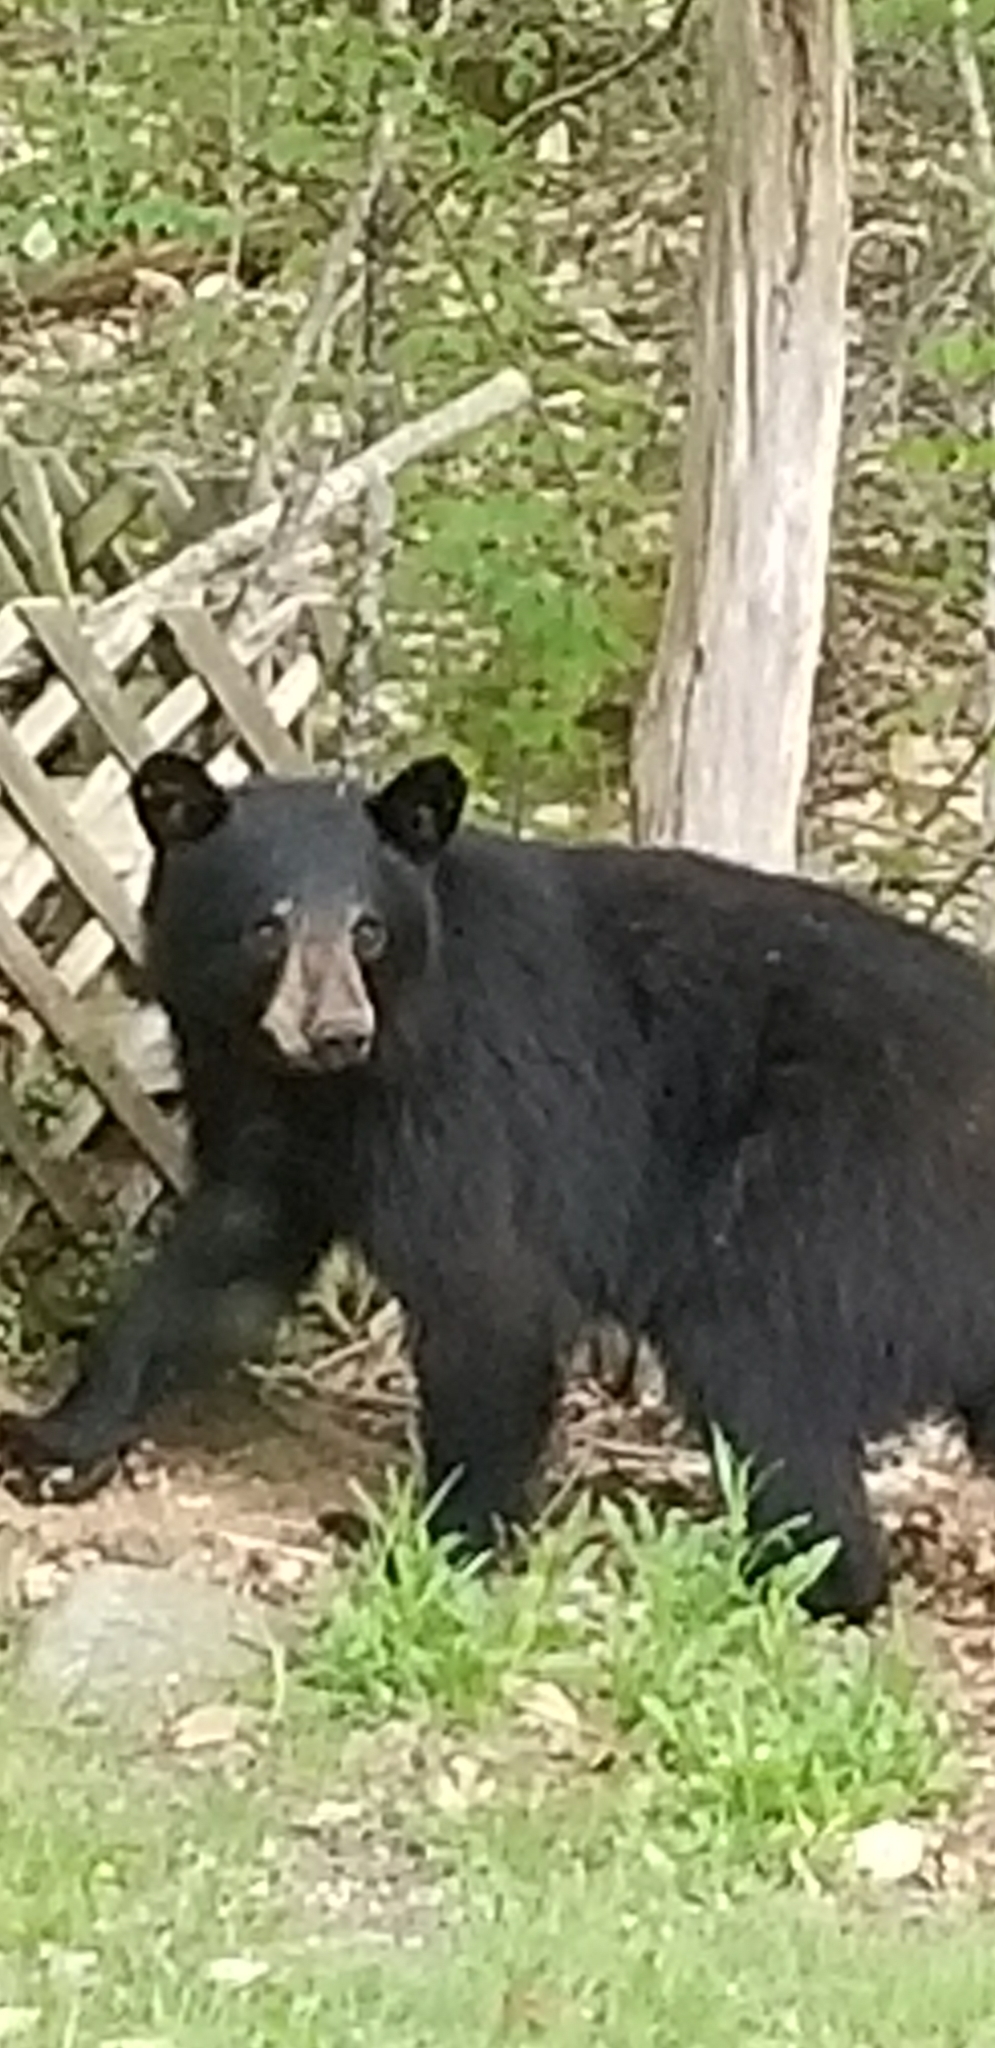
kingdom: Animalia
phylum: Chordata
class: Mammalia
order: Carnivora
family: Ursidae
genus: Ursus
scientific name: Ursus americanus
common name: American black bear
